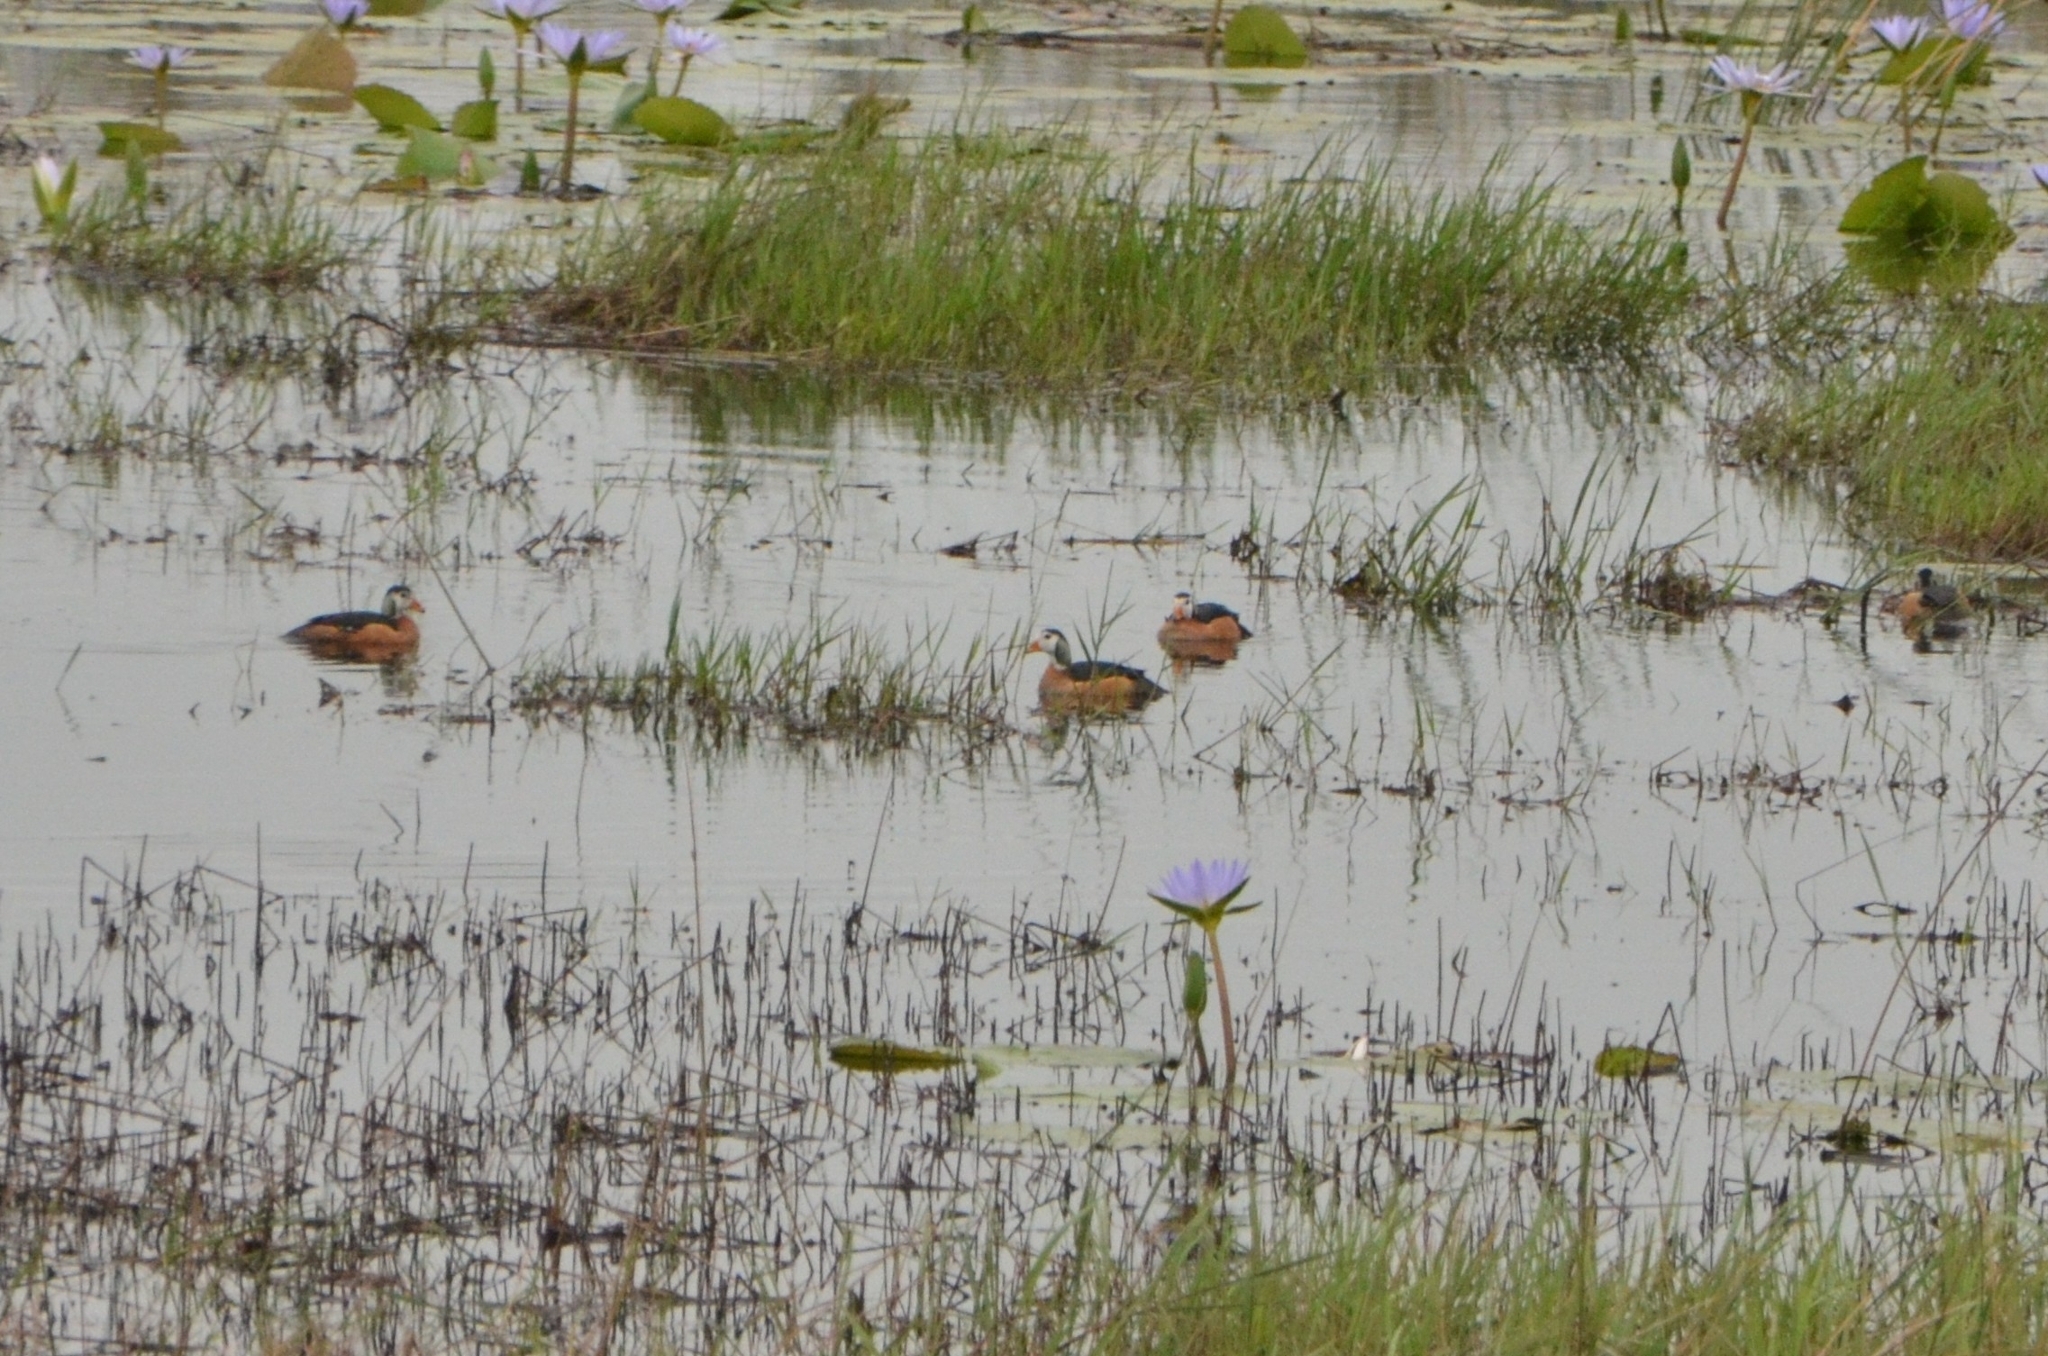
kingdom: Animalia
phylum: Chordata
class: Aves
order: Anseriformes
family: Anatidae
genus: Nettapus
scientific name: Nettapus auritus
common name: African pygmy-goose
